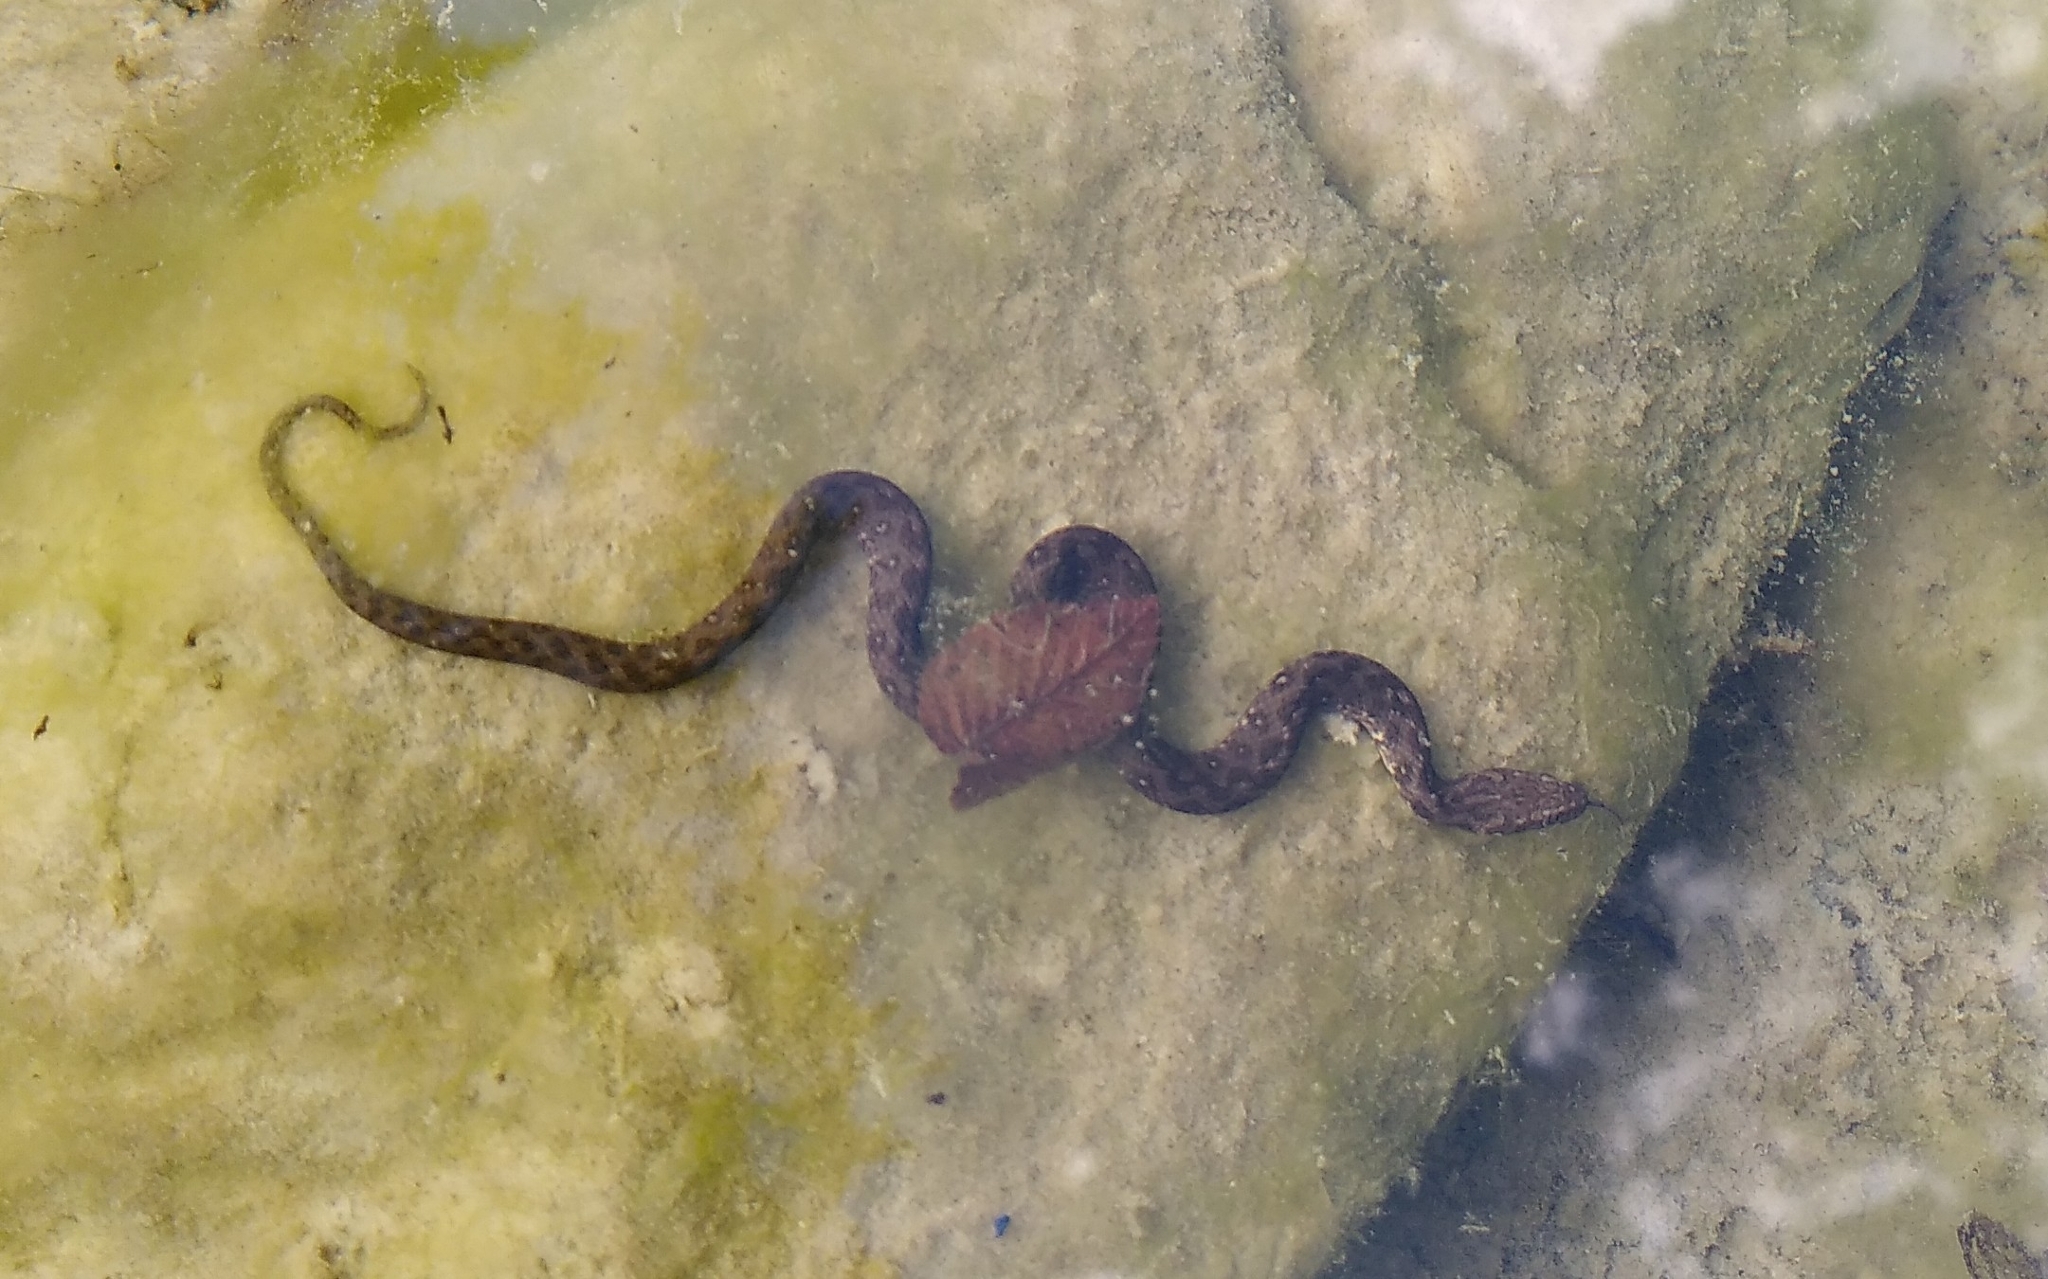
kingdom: Animalia
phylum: Chordata
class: Squamata
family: Colubridae
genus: Natrix
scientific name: Natrix maura
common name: Viperine water snake
